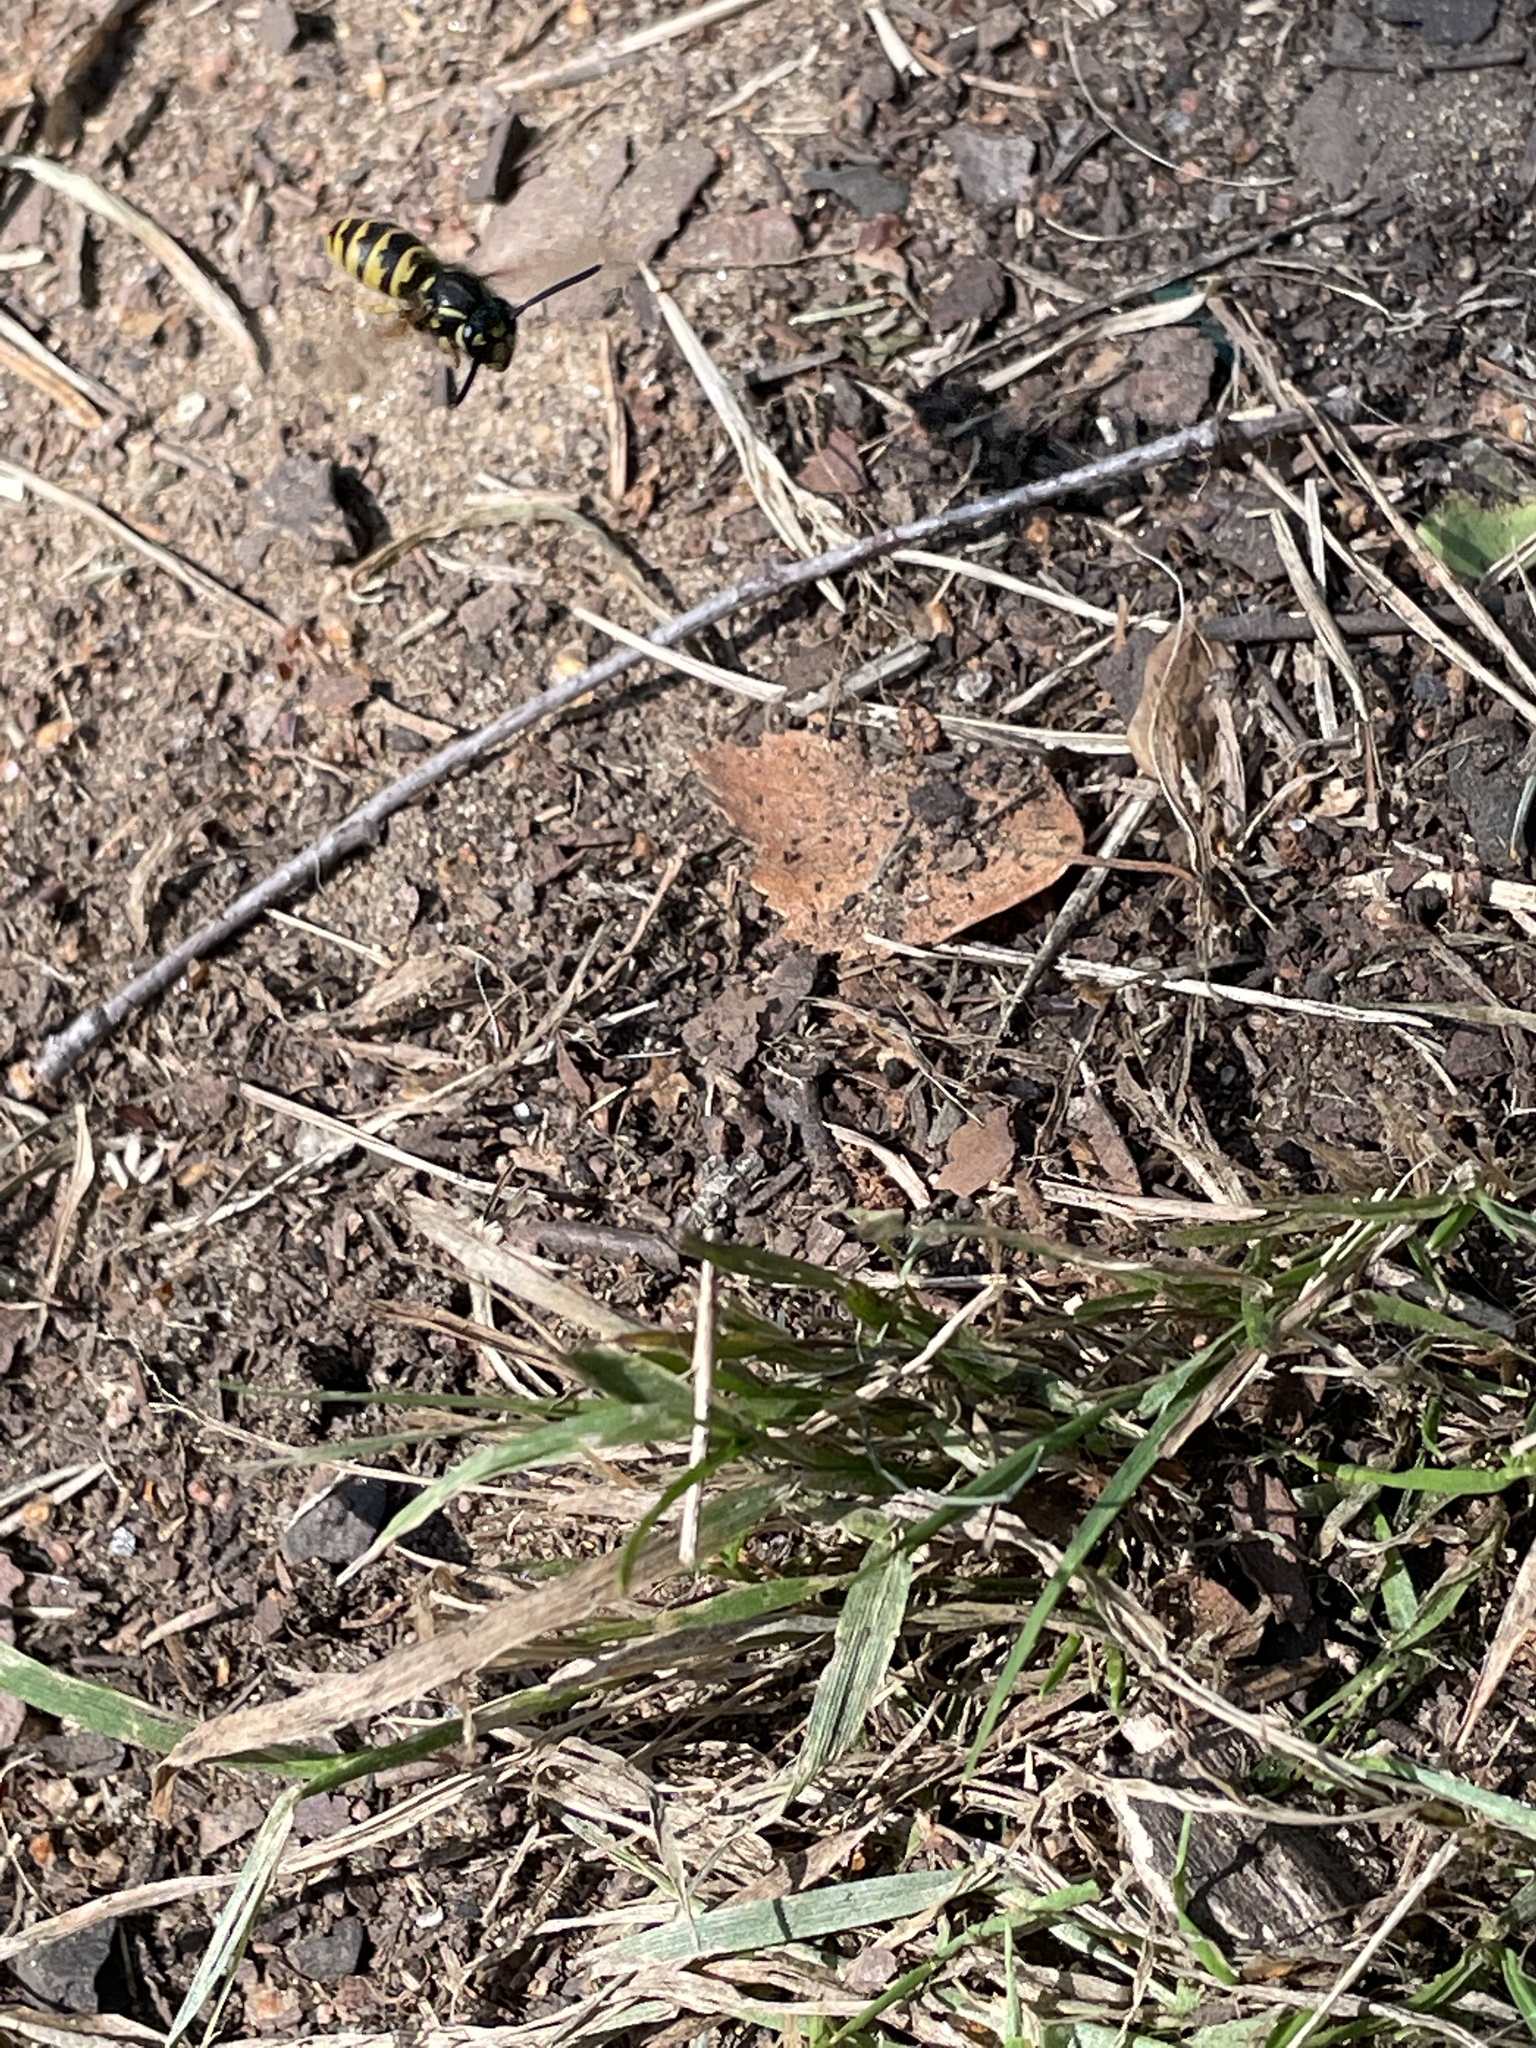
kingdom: Animalia
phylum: Arthropoda
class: Insecta
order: Hymenoptera
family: Vespidae
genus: Vespula
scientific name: Vespula vulgaris
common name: Common wasp
